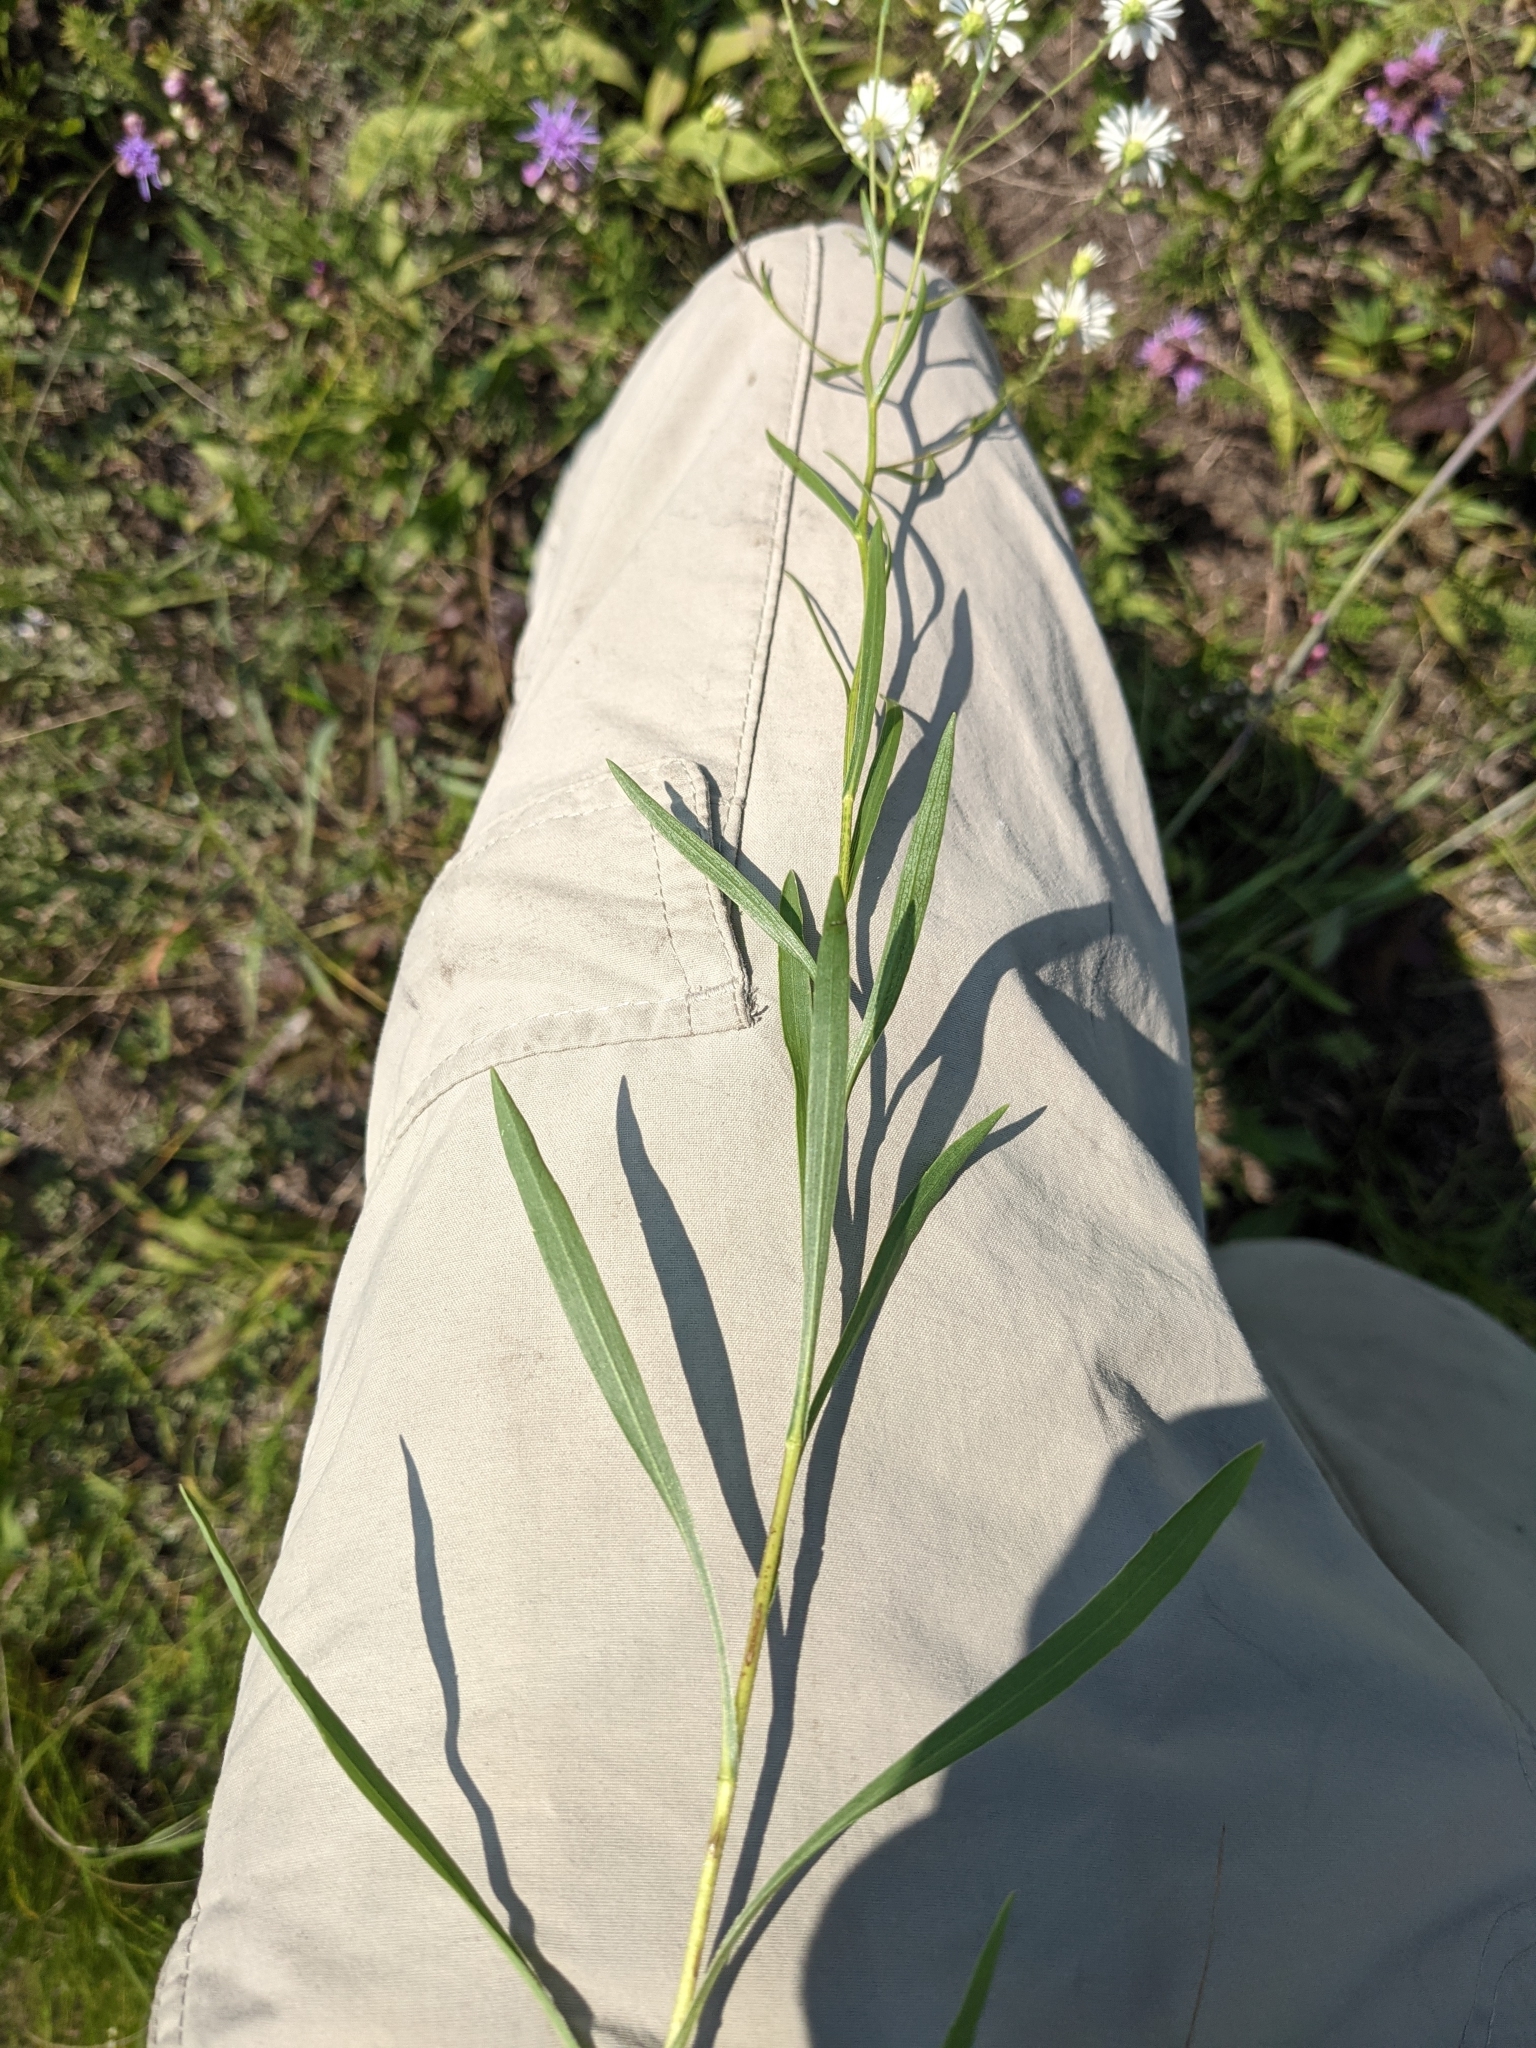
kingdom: Plantae
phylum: Tracheophyta
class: Magnoliopsida
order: Asterales
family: Asteraceae
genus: Solidago
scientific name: Solidago ptarmicoides
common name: White flat-top goldenrod
